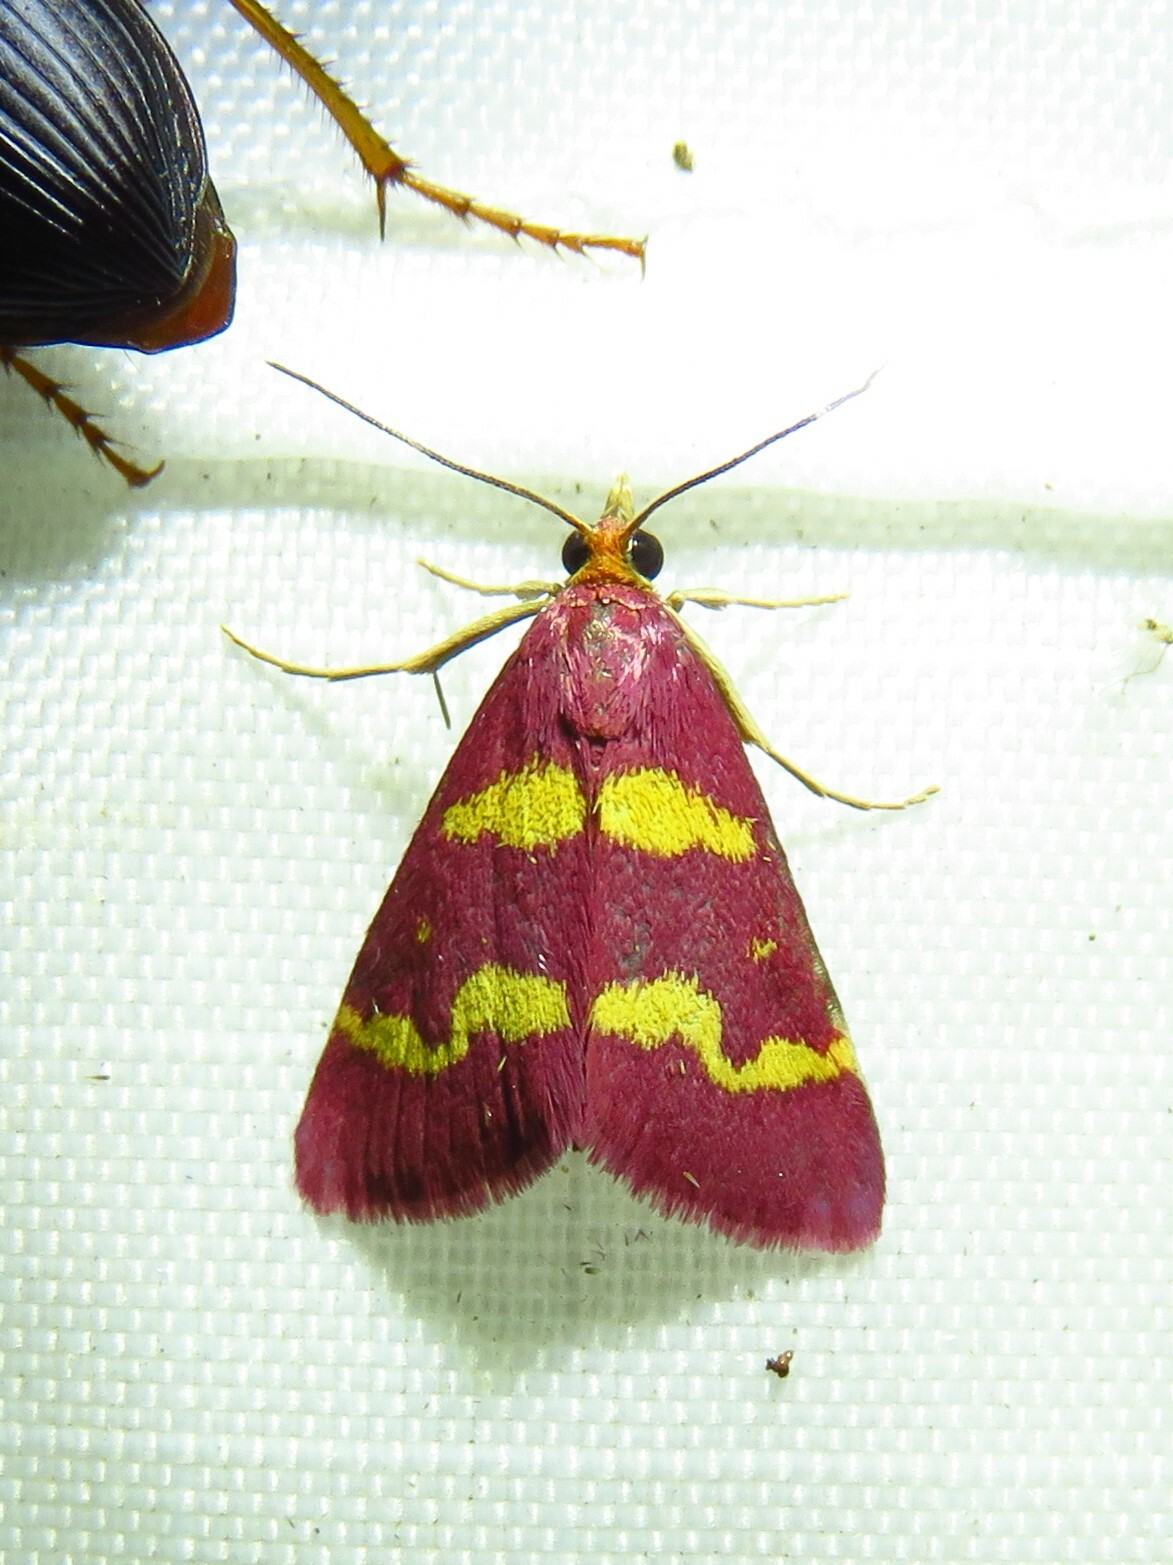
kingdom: Animalia
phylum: Arthropoda
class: Insecta
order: Lepidoptera
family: Crambidae
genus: Pyrausta
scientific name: Pyrausta tyralis
